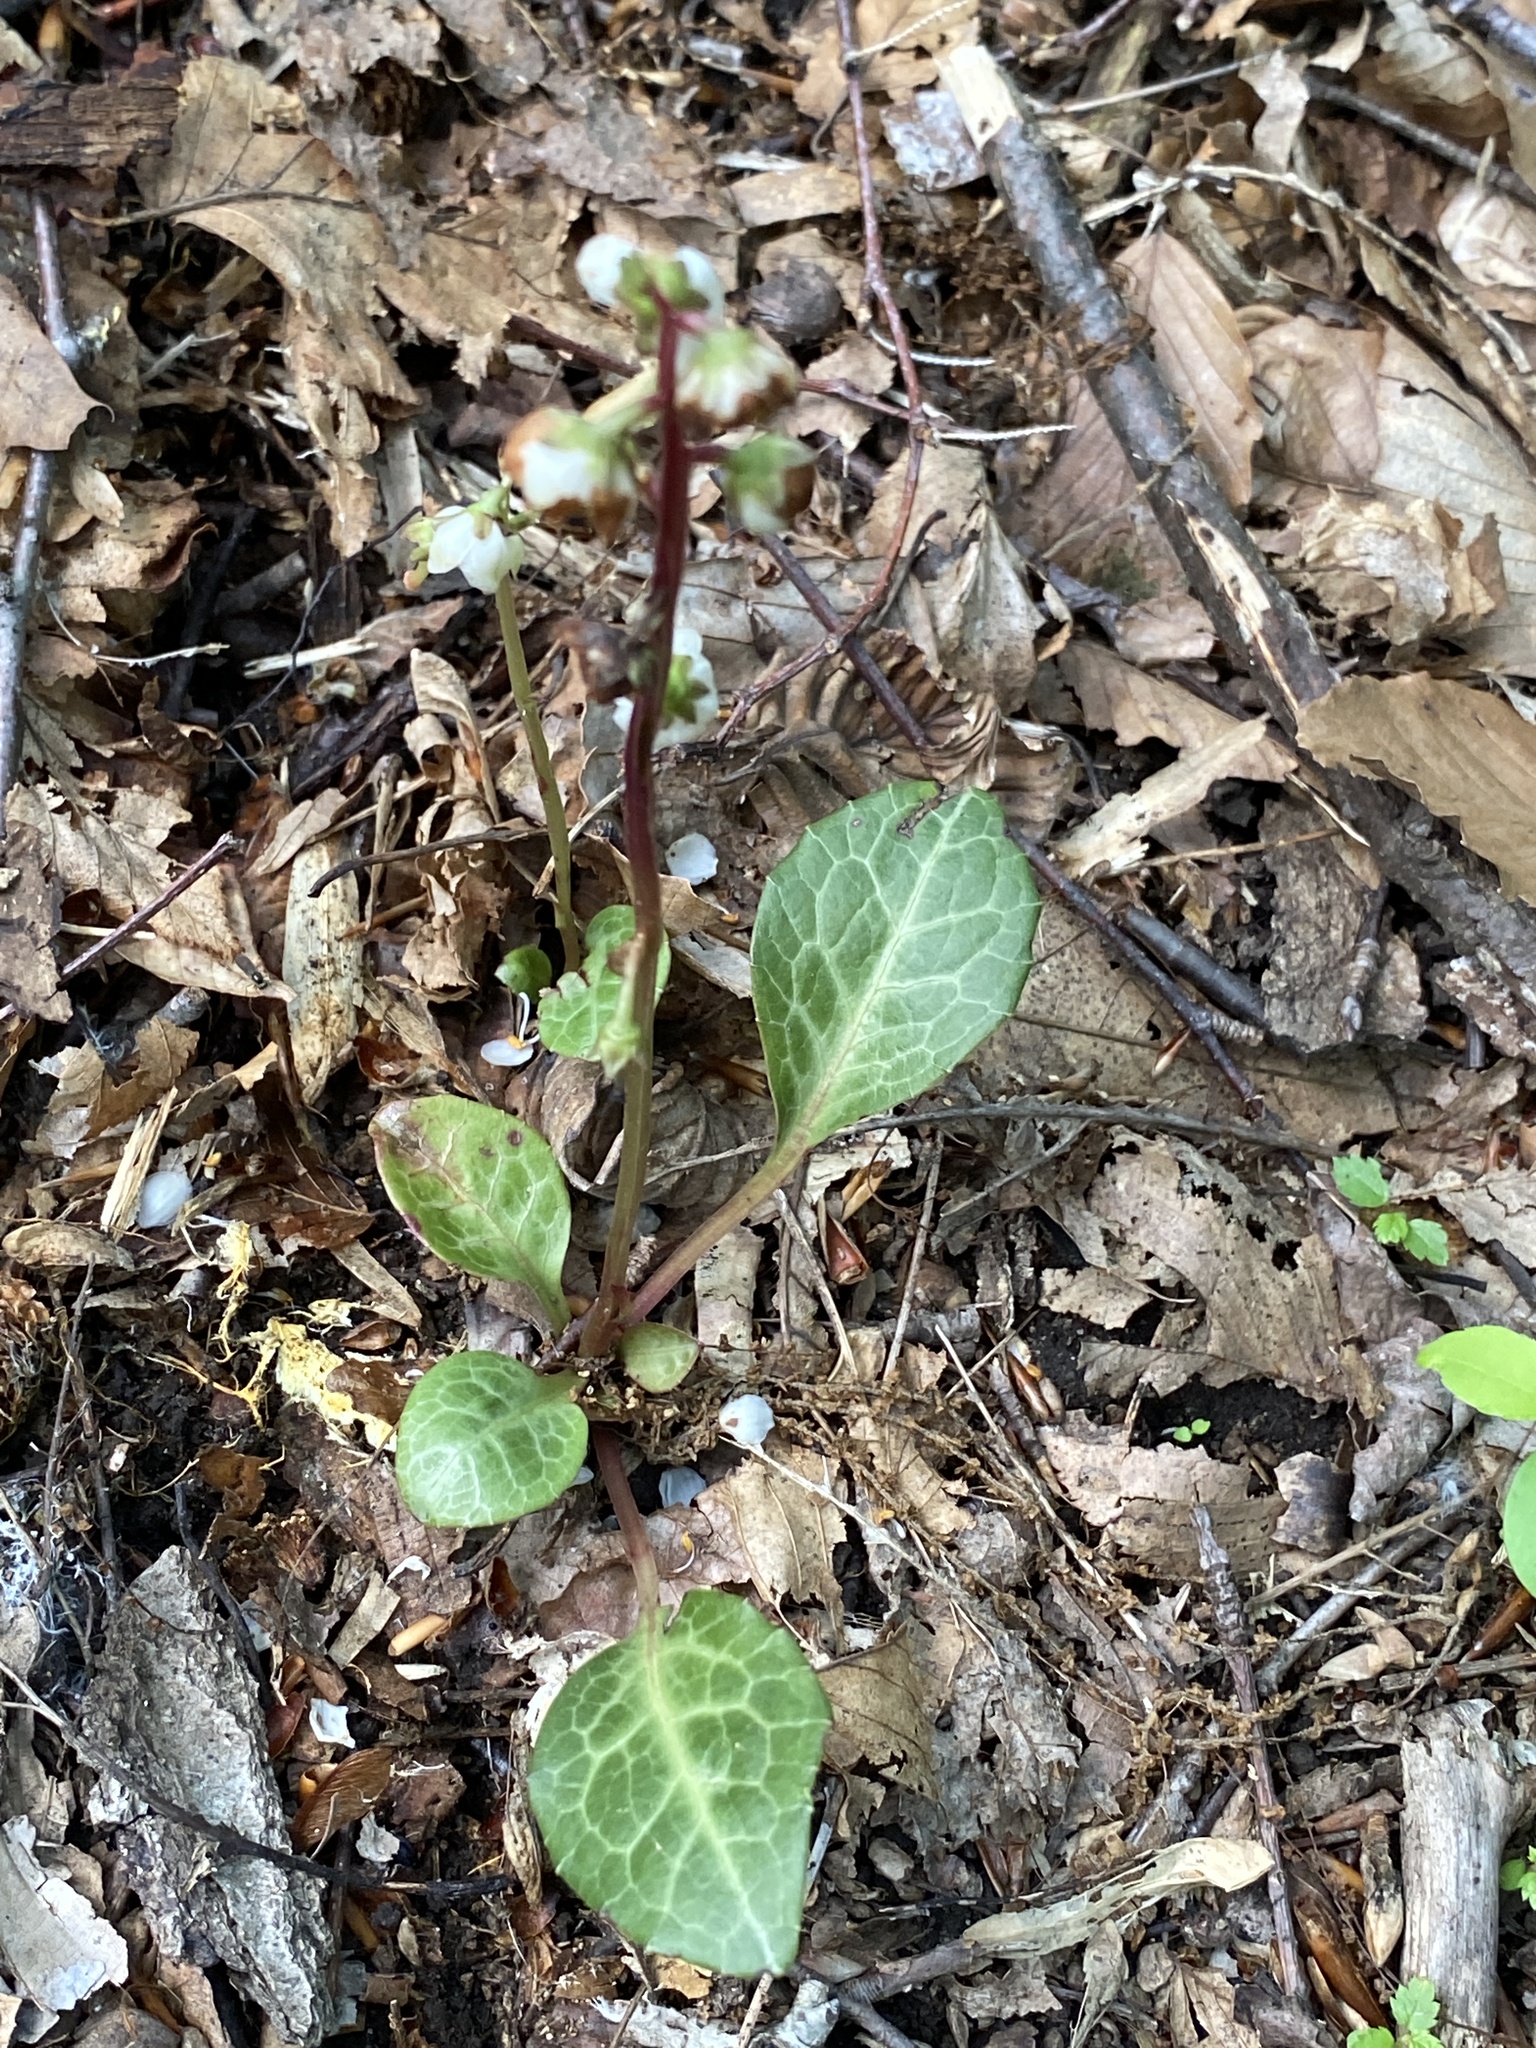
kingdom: Plantae
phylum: Tracheophyta
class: Magnoliopsida
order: Ericales
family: Ericaceae
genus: Pyrola
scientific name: Pyrola americana
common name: American wintergreen
